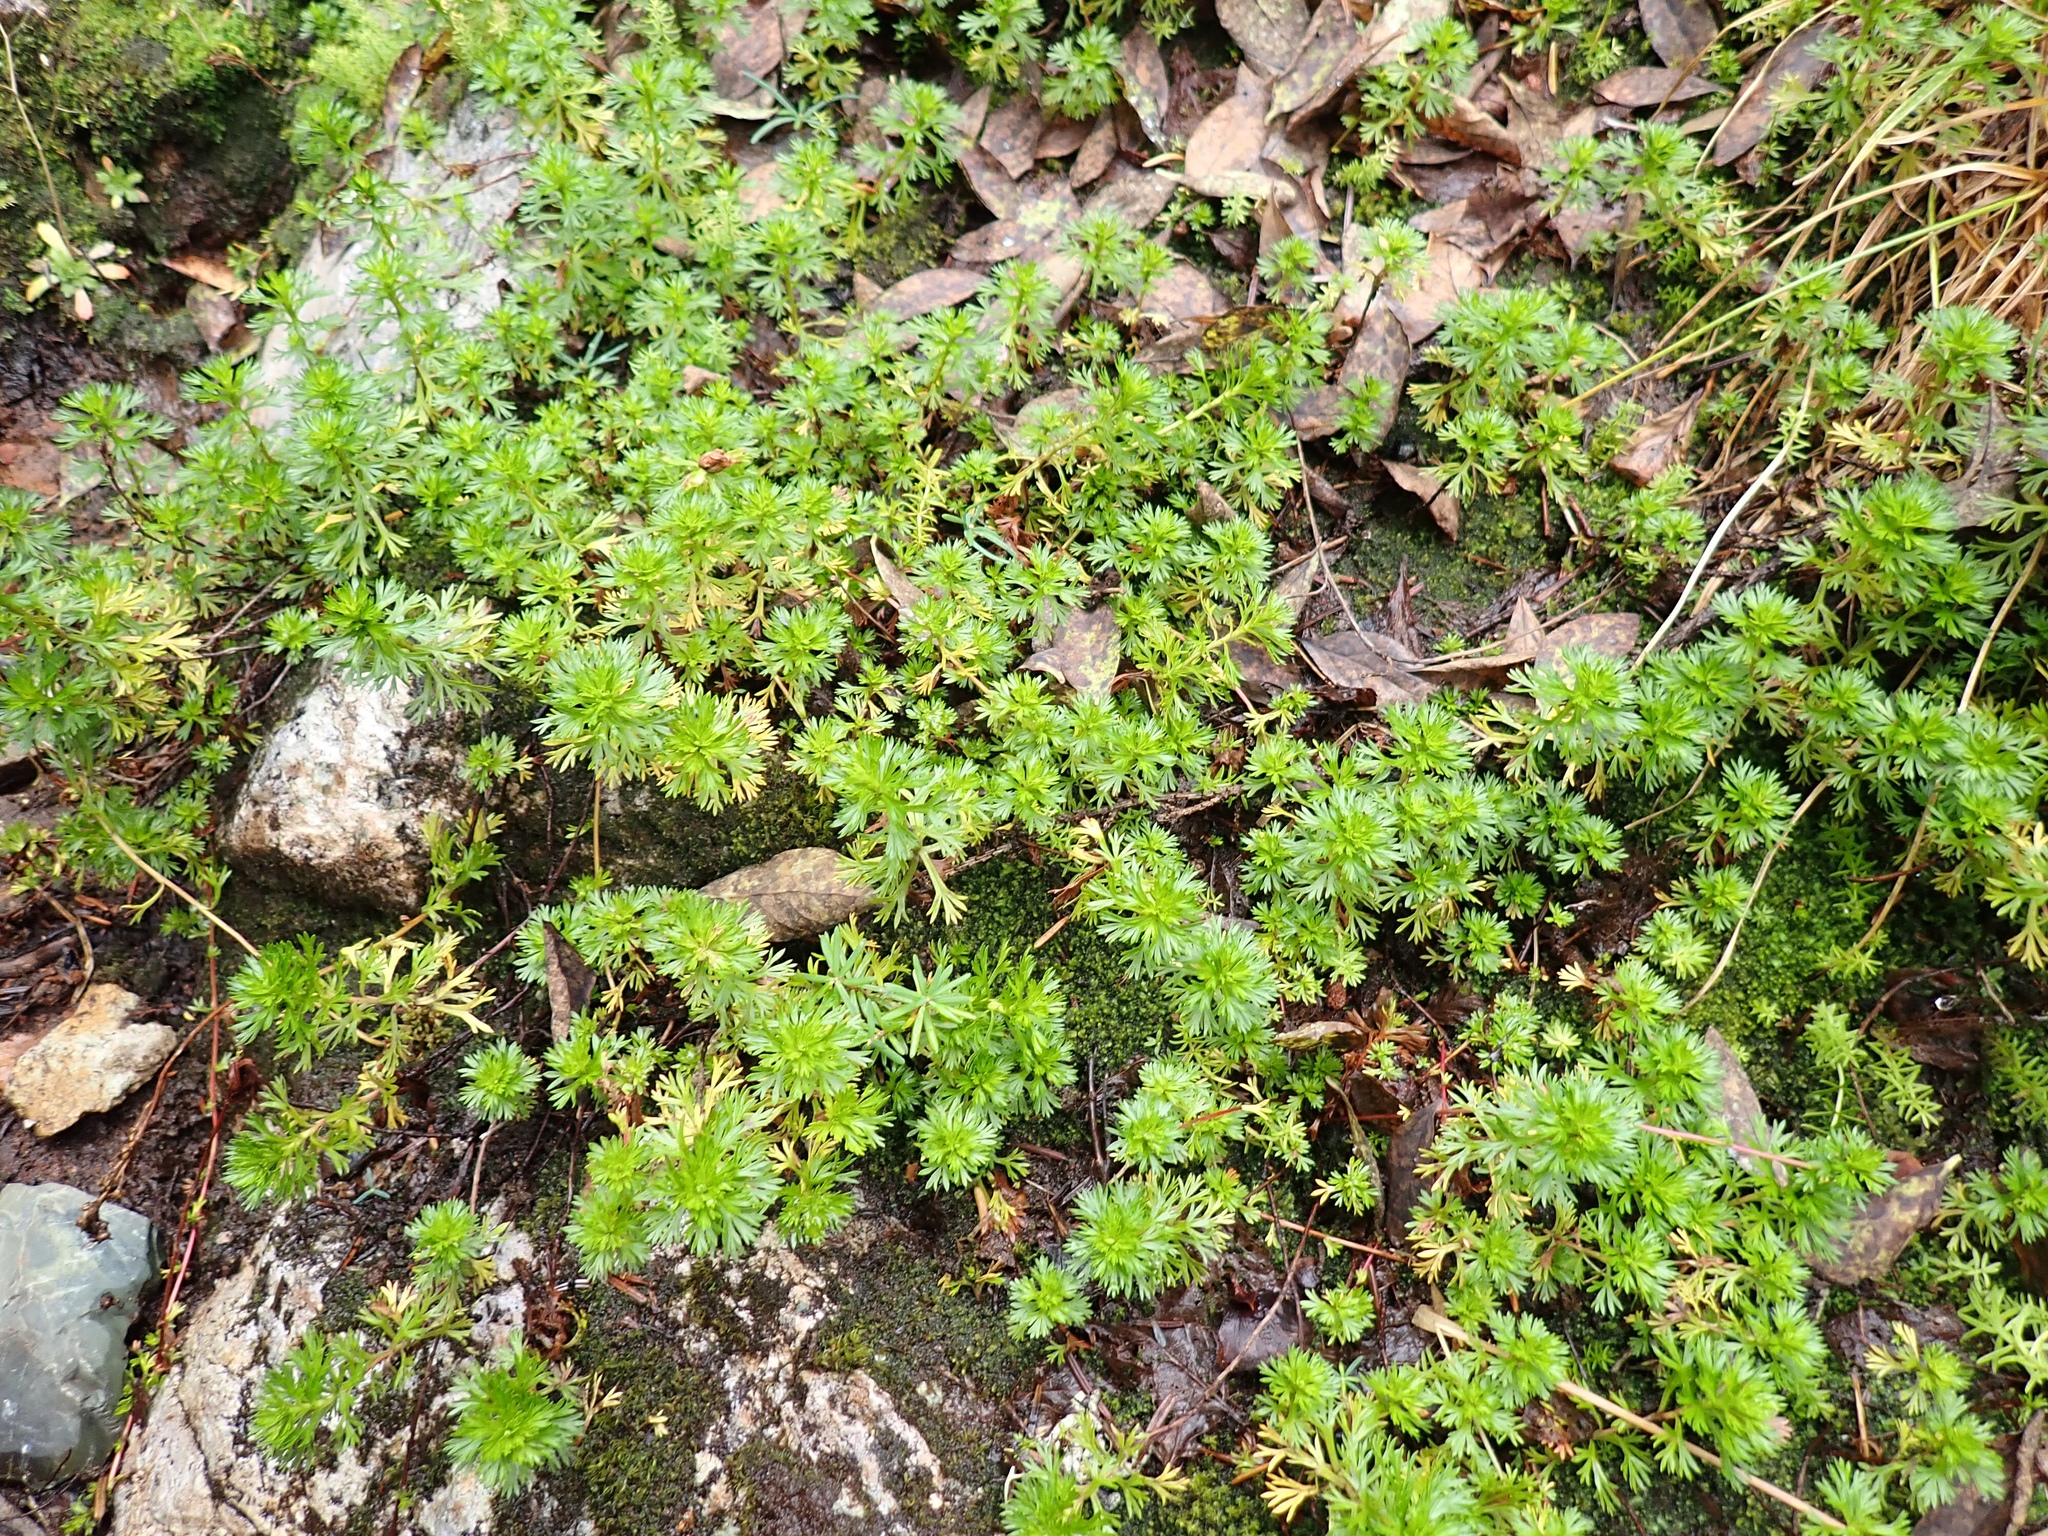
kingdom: Plantae
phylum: Tracheophyta
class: Magnoliopsida
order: Rosales
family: Rosaceae
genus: Luetkea
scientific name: Luetkea pectinata
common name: Partridgefoot
